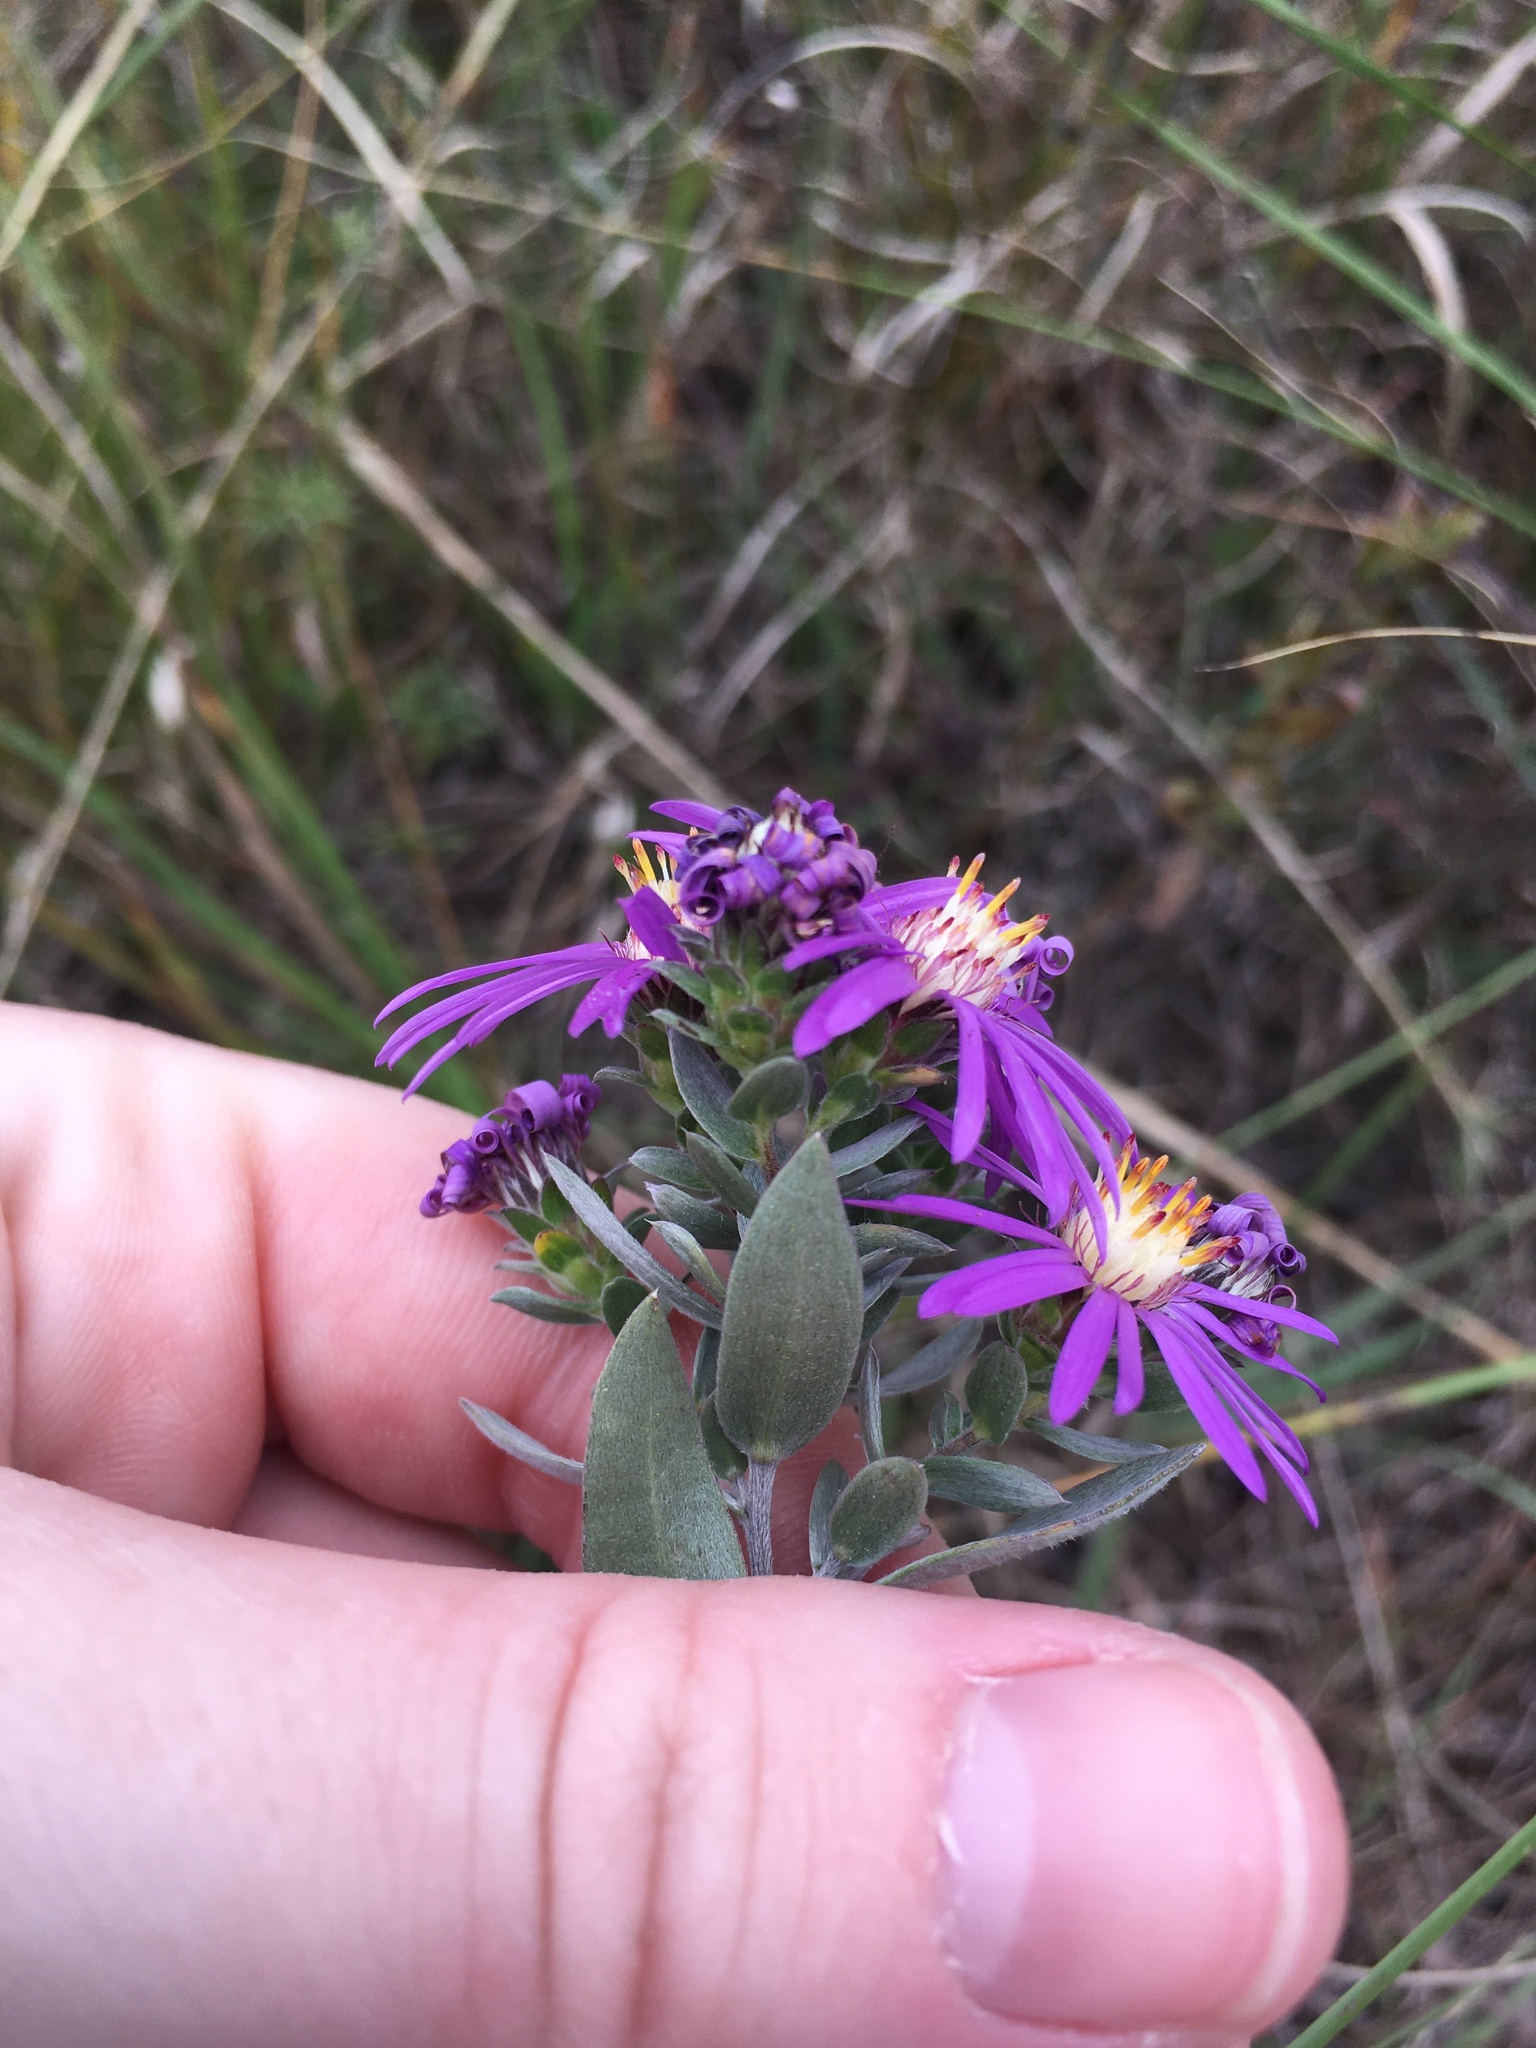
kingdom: Plantae
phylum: Tracheophyta
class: Magnoliopsida
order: Asterales
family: Asteraceae
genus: Symphyotrichum
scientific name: Symphyotrichum sericeum
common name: Silky aster
